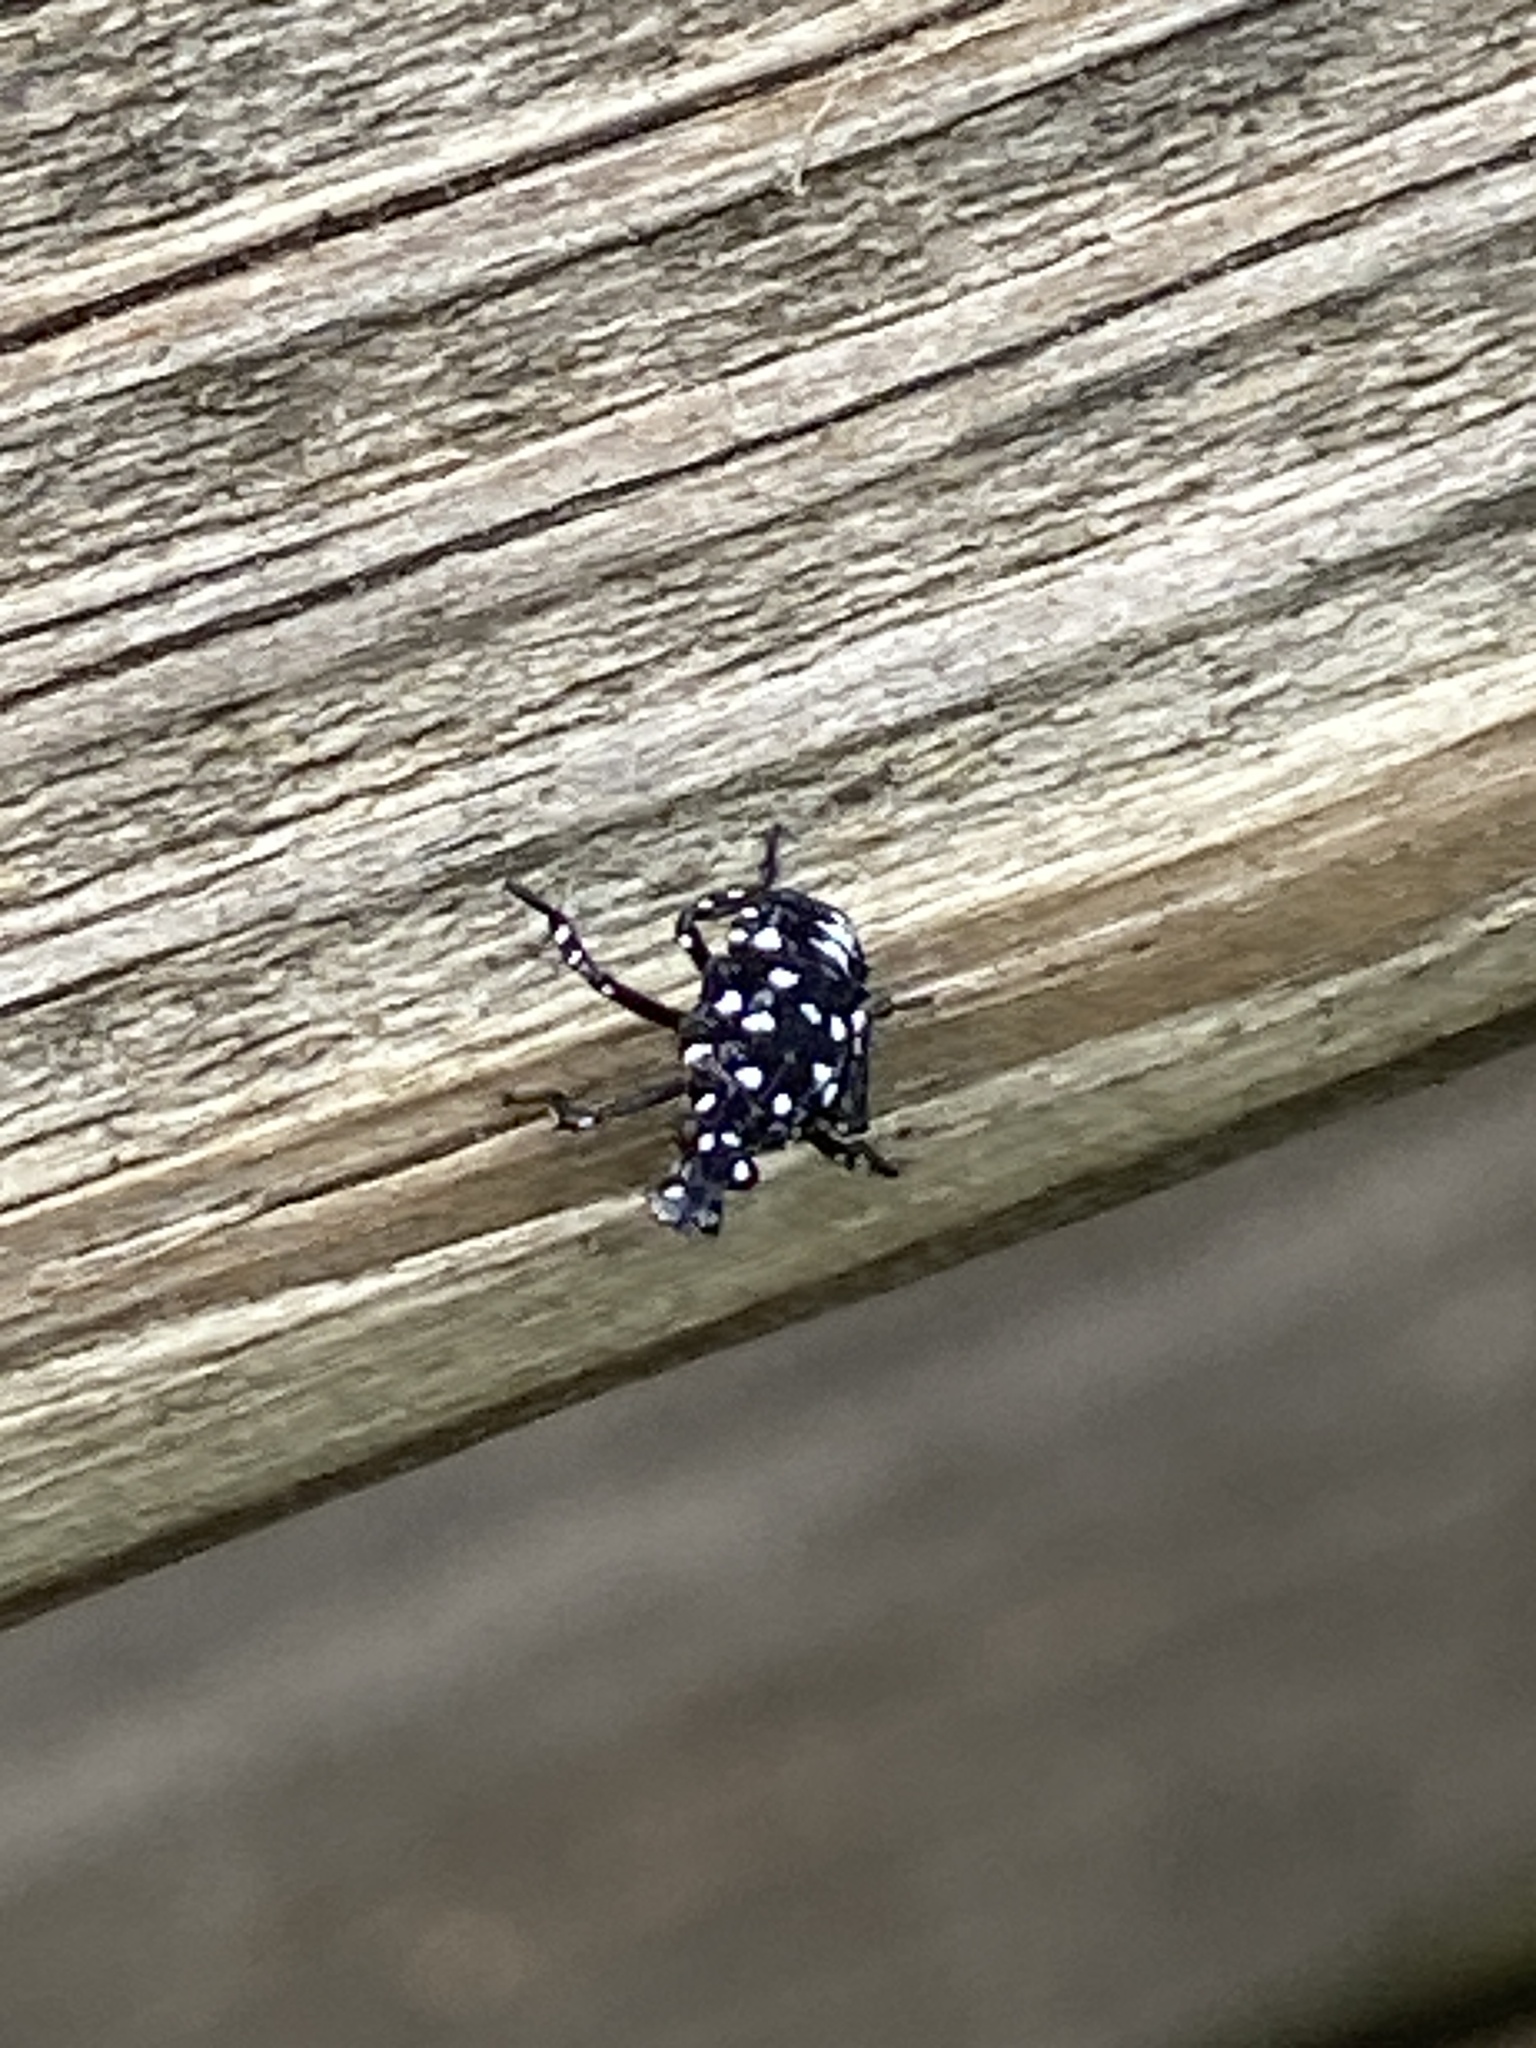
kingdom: Animalia
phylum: Arthropoda
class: Insecta
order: Hemiptera
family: Fulgoridae
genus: Lycorma
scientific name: Lycorma delicatula
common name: Spotted lanternfly
